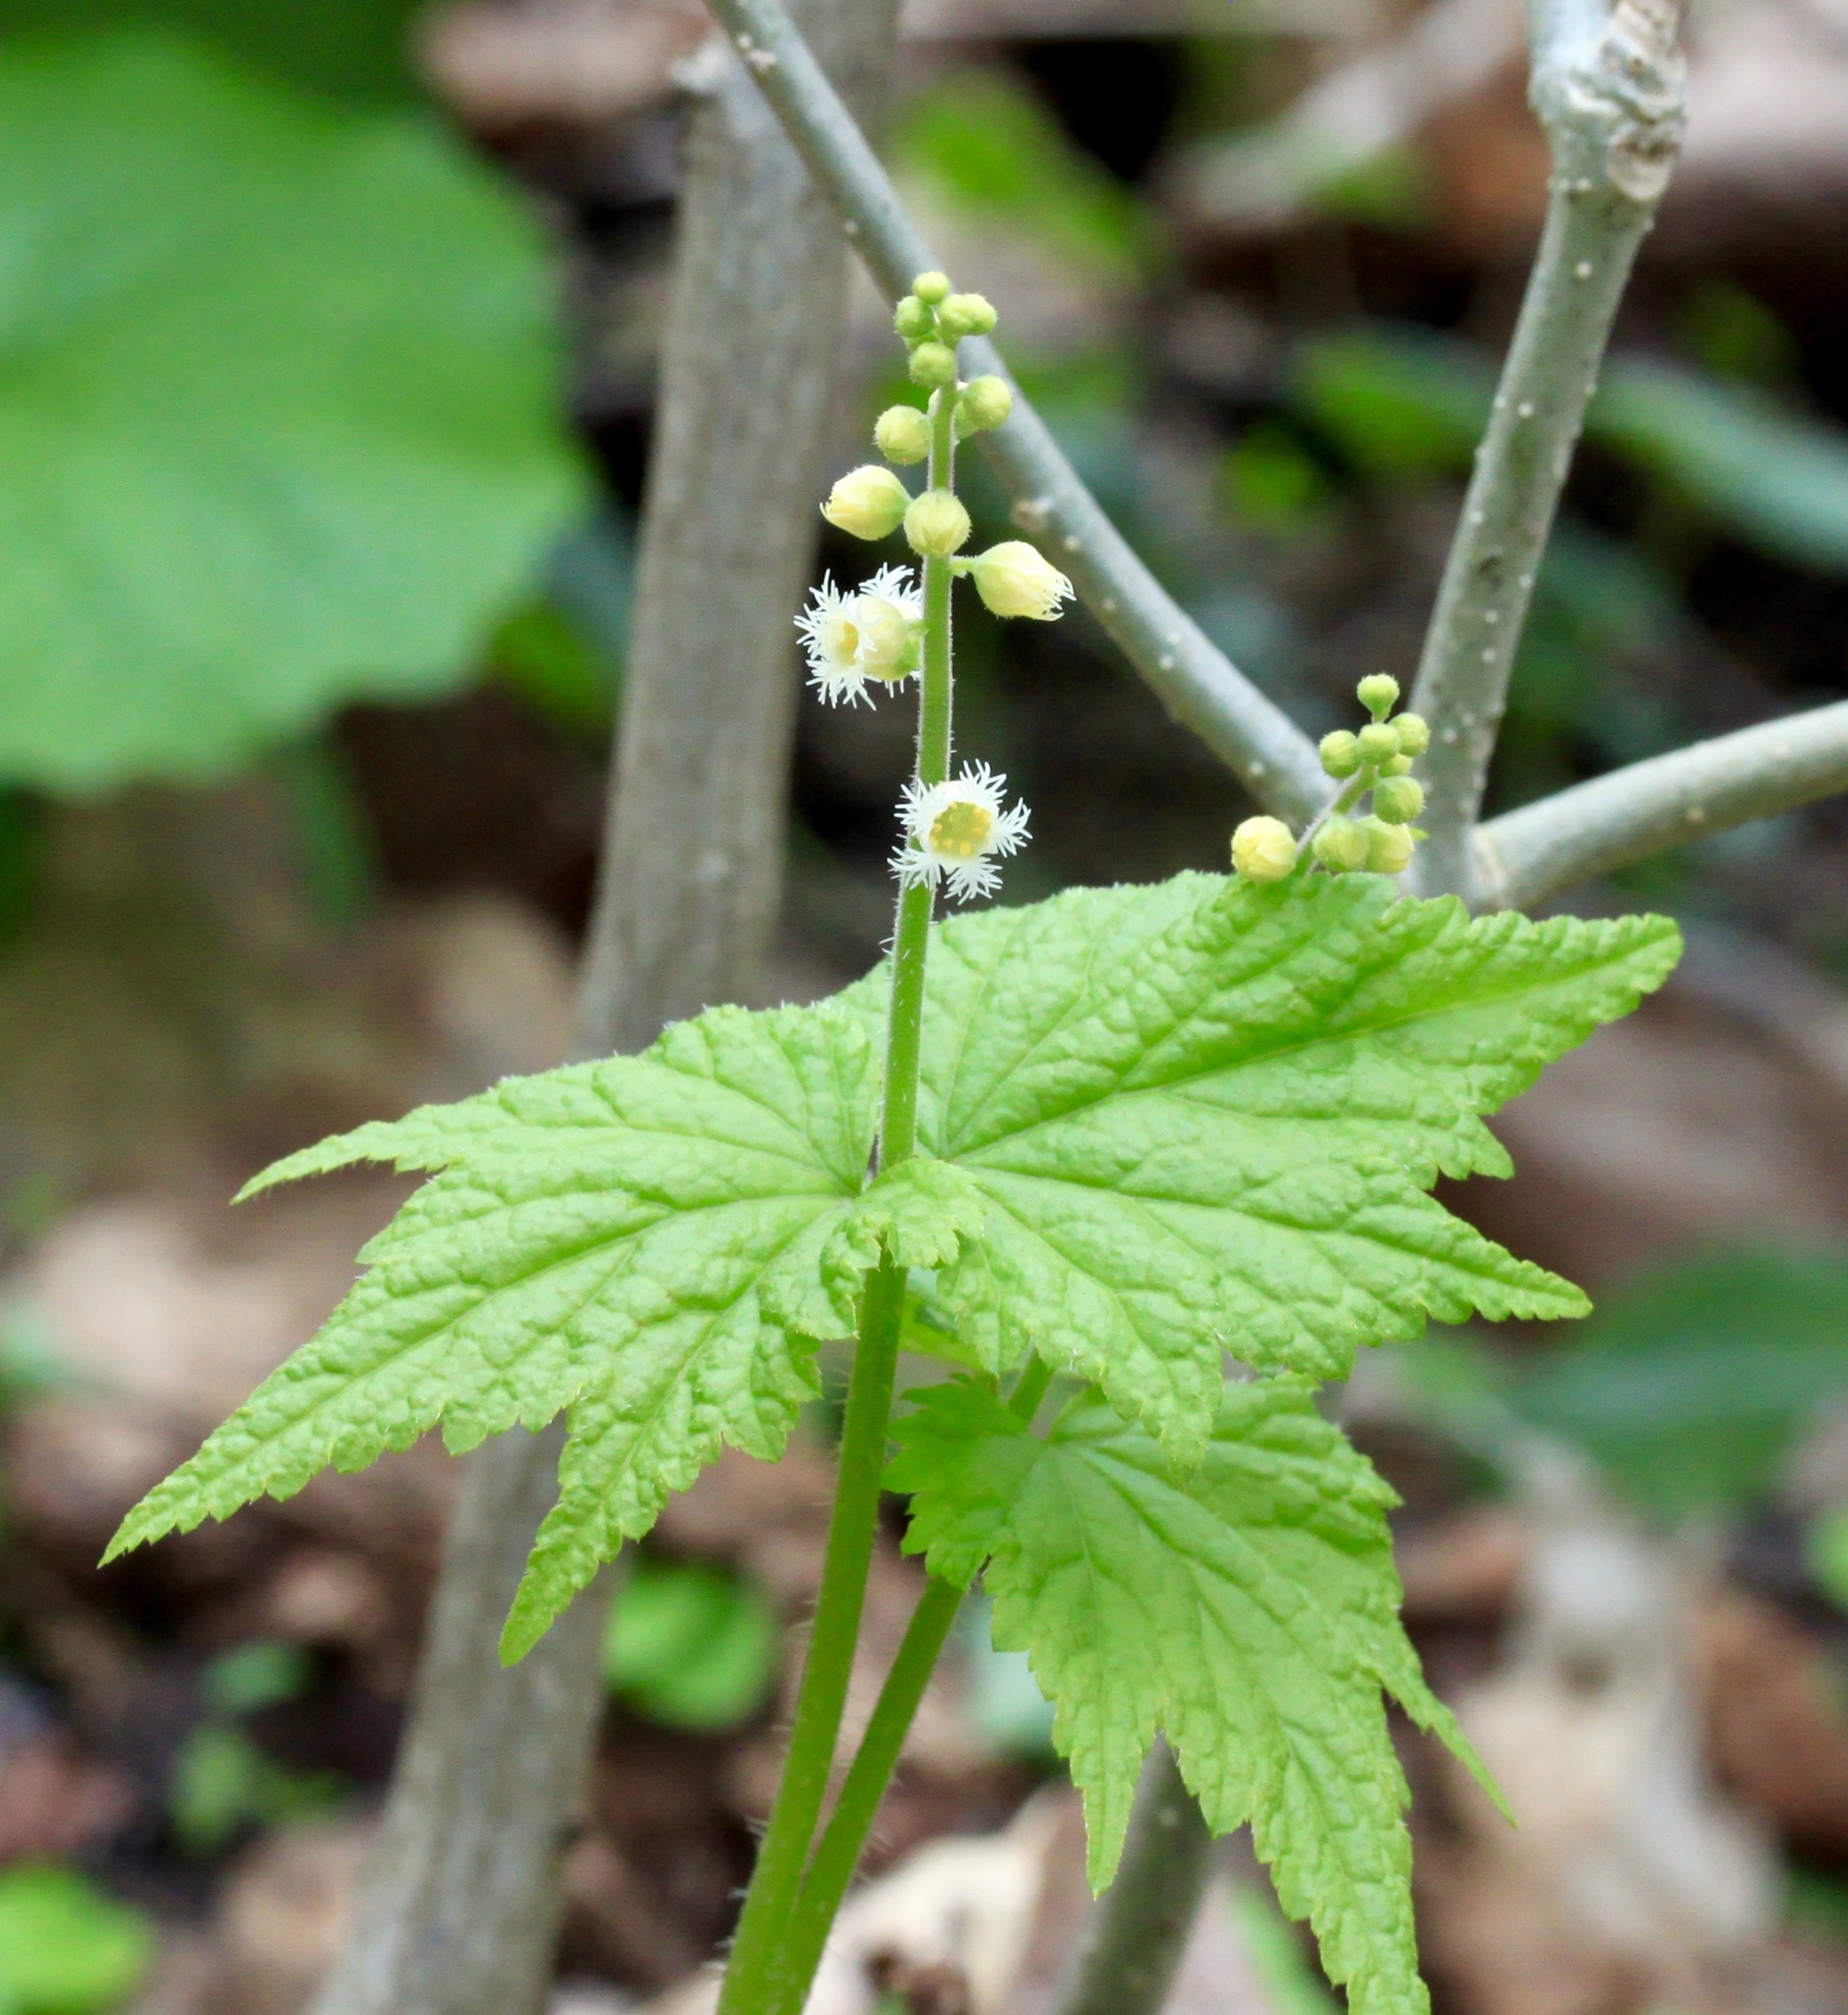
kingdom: Plantae
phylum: Tracheophyta
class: Magnoliopsida
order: Saxifragales
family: Saxifragaceae
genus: Mitella
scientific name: Mitella diphylla
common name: Coolwort
